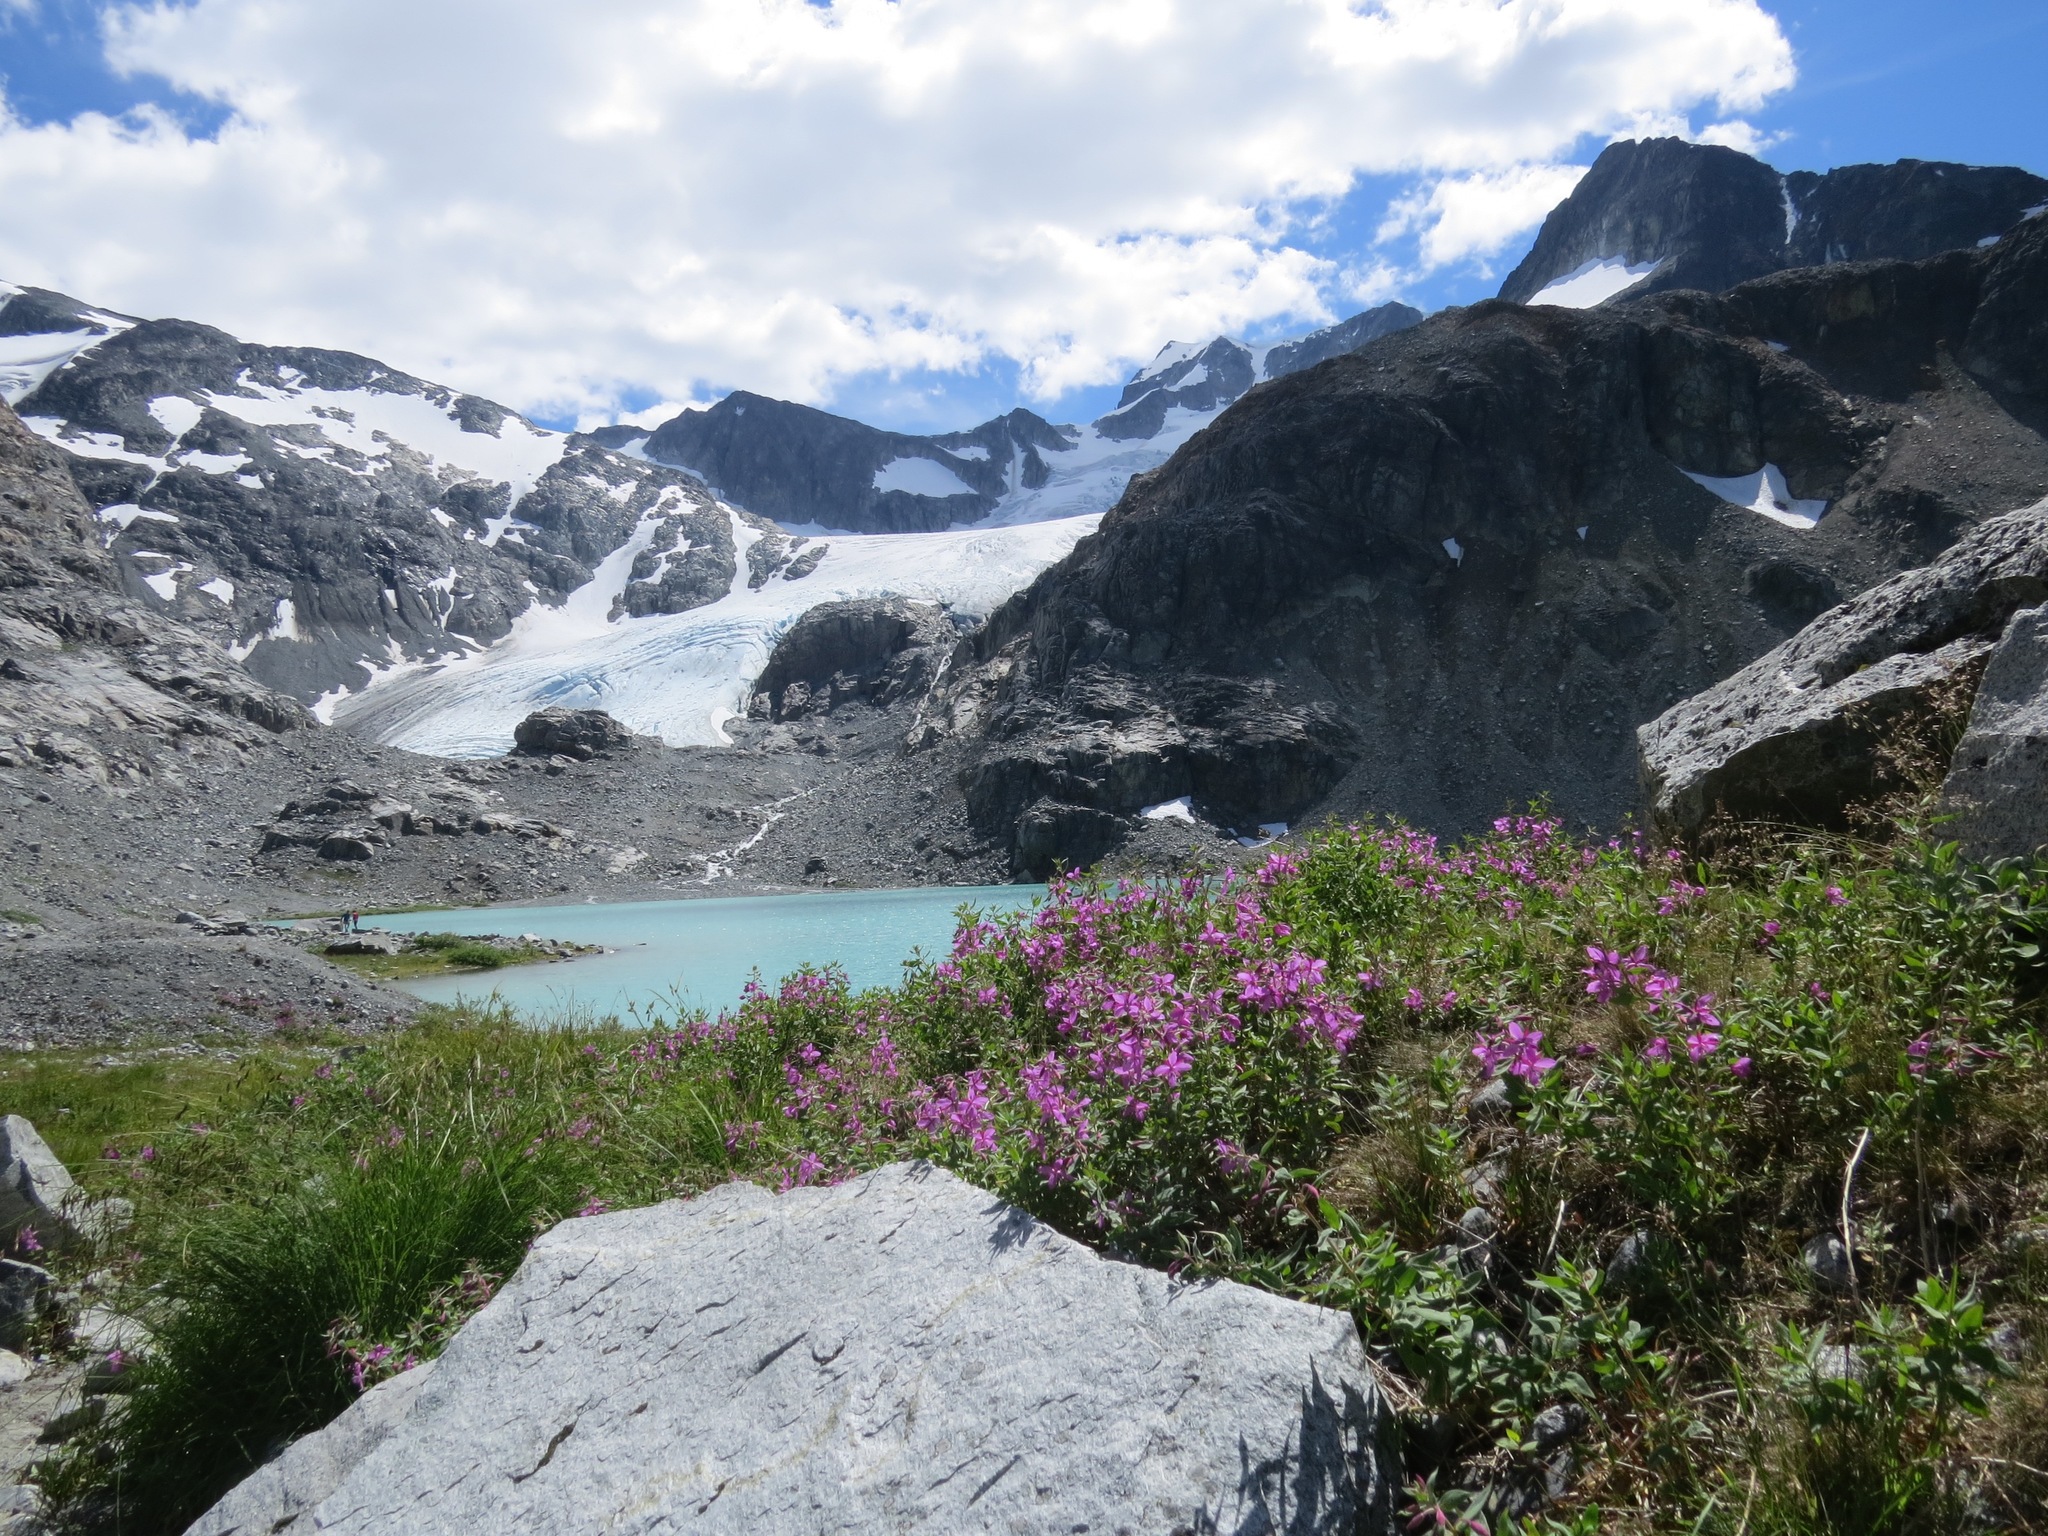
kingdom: Plantae
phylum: Tracheophyta
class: Magnoliopsida
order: Myrtales
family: Onagraceae
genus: Chamaenerion
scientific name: Chamaenerion latifolium
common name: Dwarf fireweed
